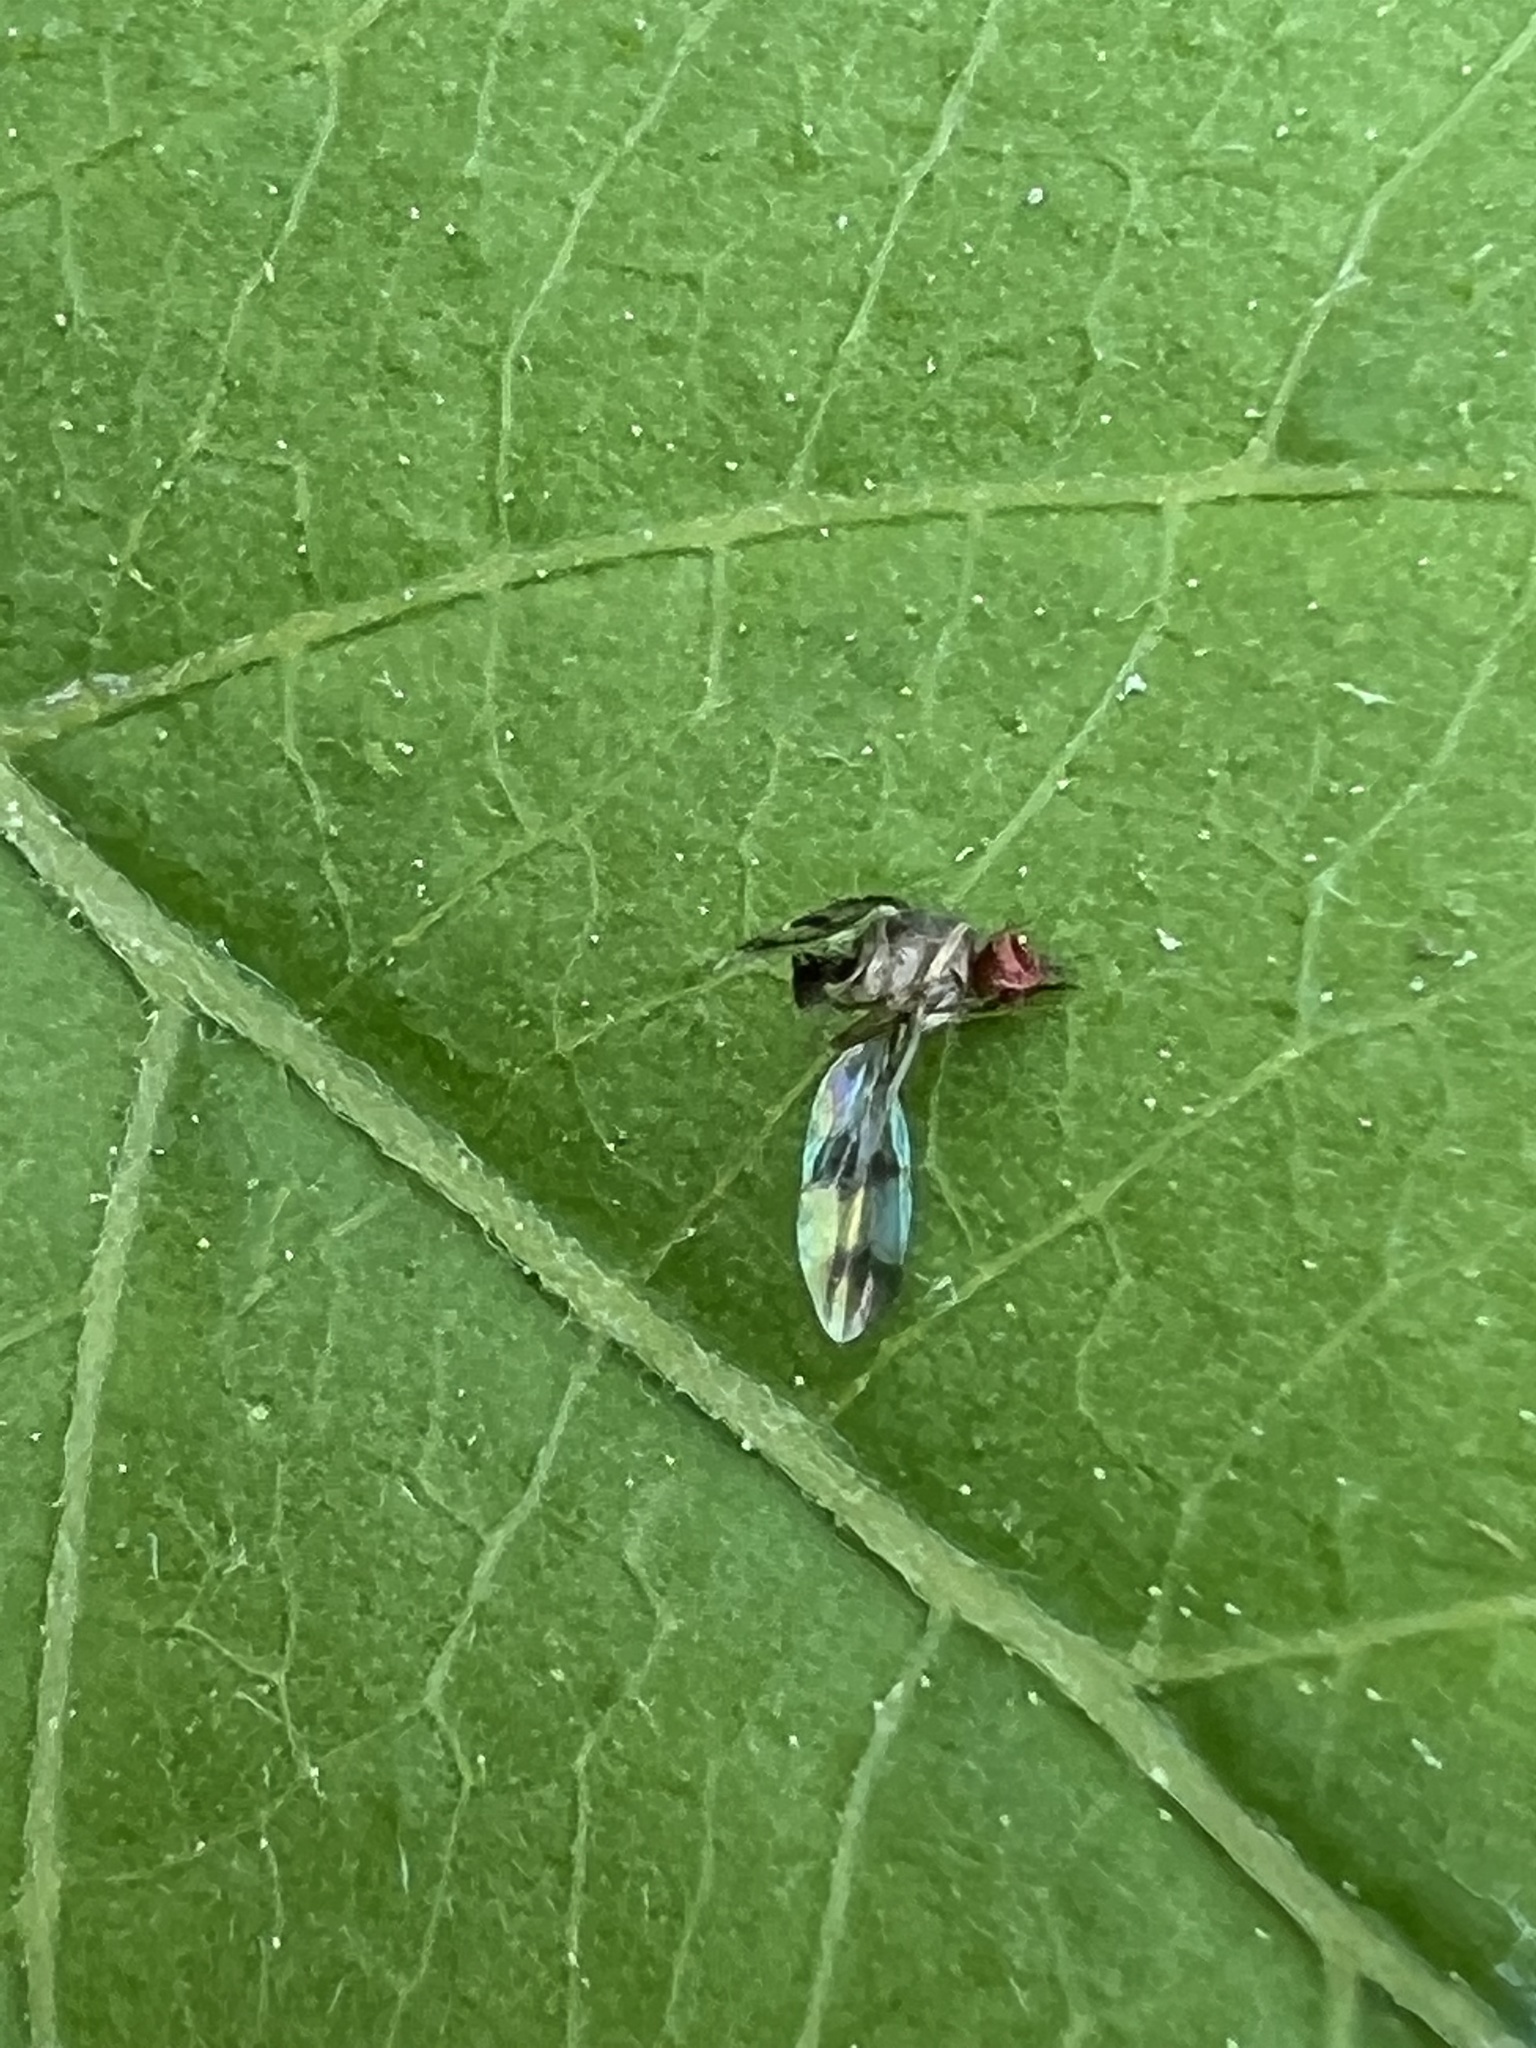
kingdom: Animalia
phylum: Arthropoda
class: Insecta
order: Diptera
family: Drosophilidae
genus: Chymomyza
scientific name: Chymomyza amoena
